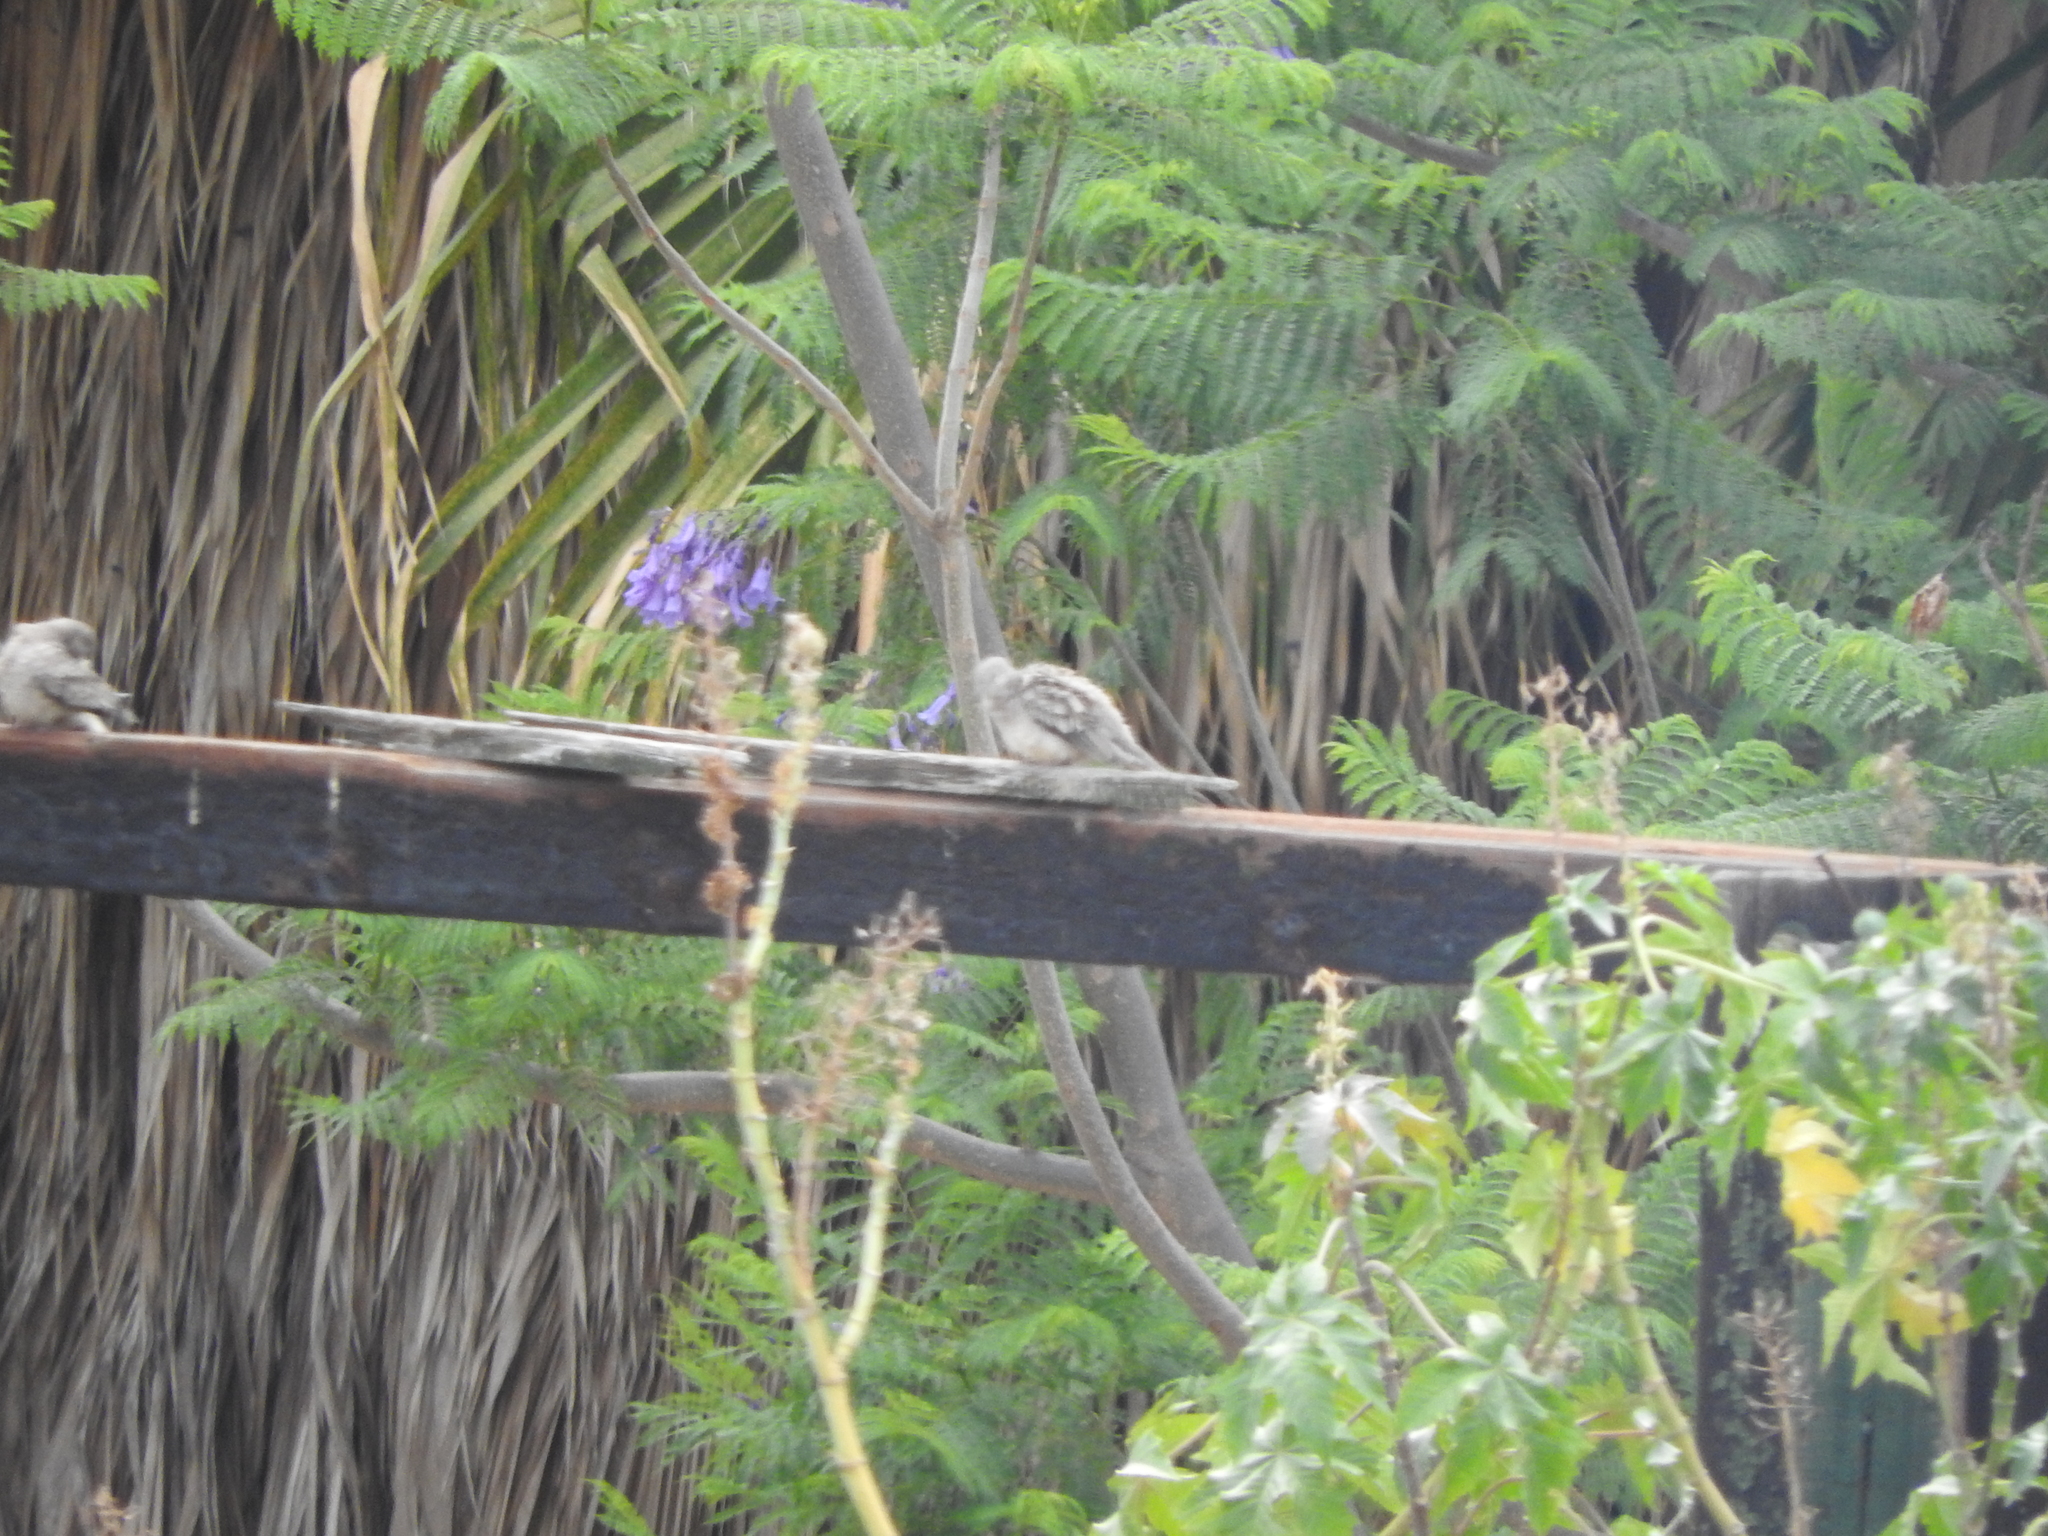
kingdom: Animalia
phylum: Chordata
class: Aves
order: Columbiformes
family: Columbidae
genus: Columbina
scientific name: Columbina inca
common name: Inca dove
